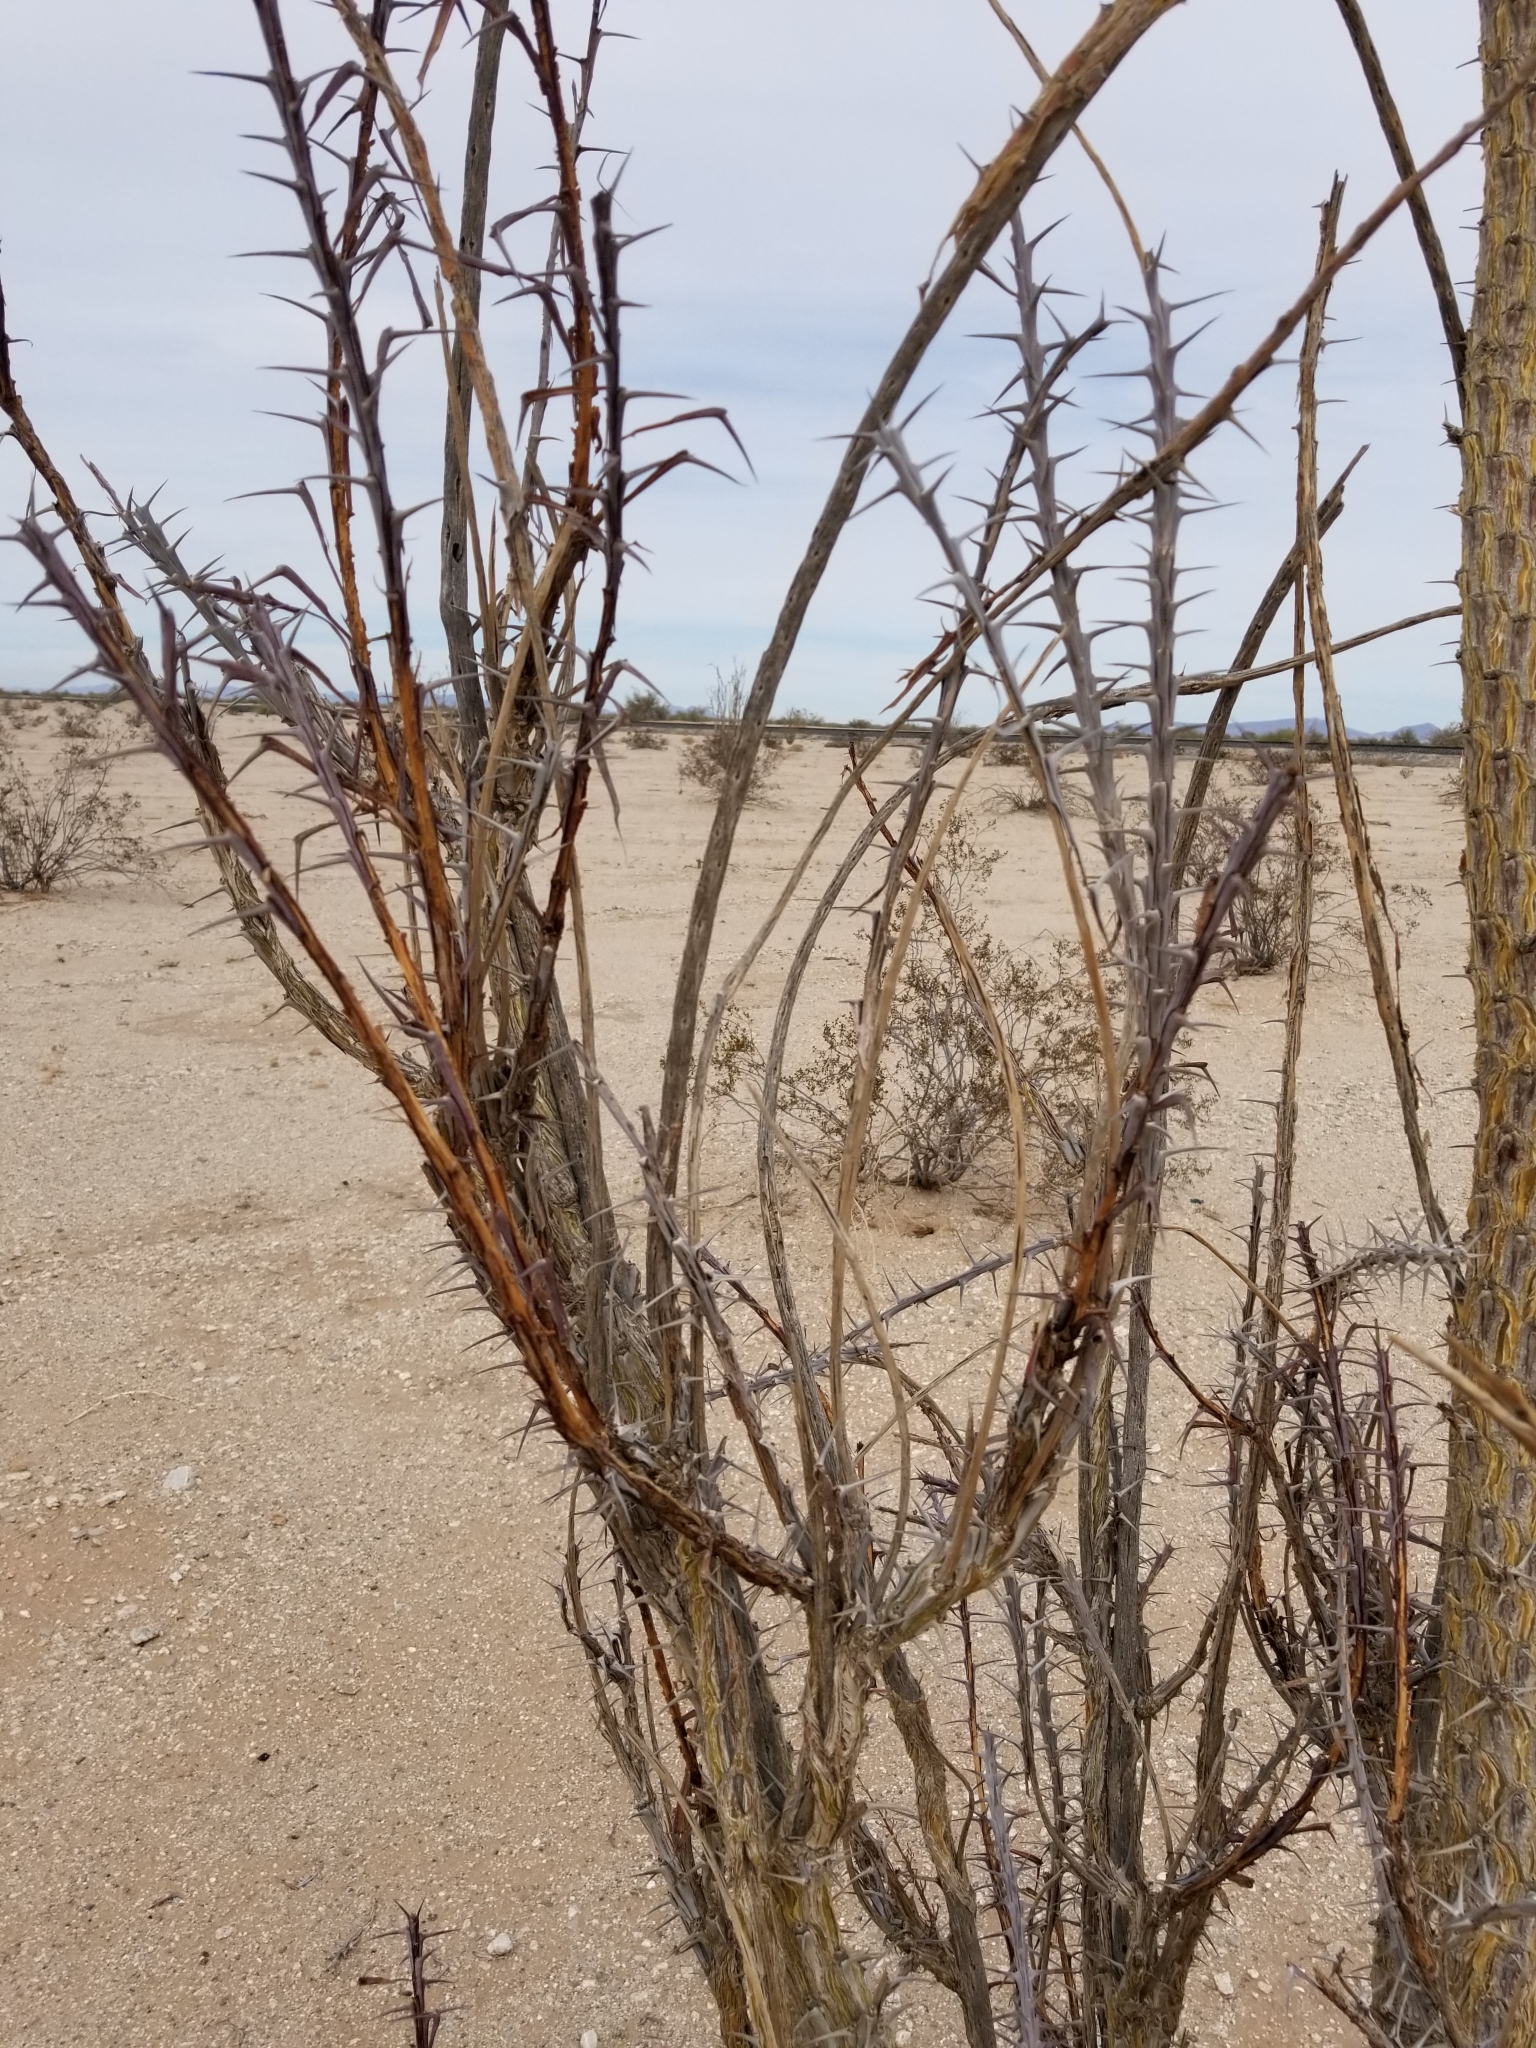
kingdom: Plantae
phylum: Tracheophyta
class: Magnoliopsida
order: Ericales
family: Fouquieriaceae
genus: Fouquieria
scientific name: Fouquieria splendens
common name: Vine-cactus
